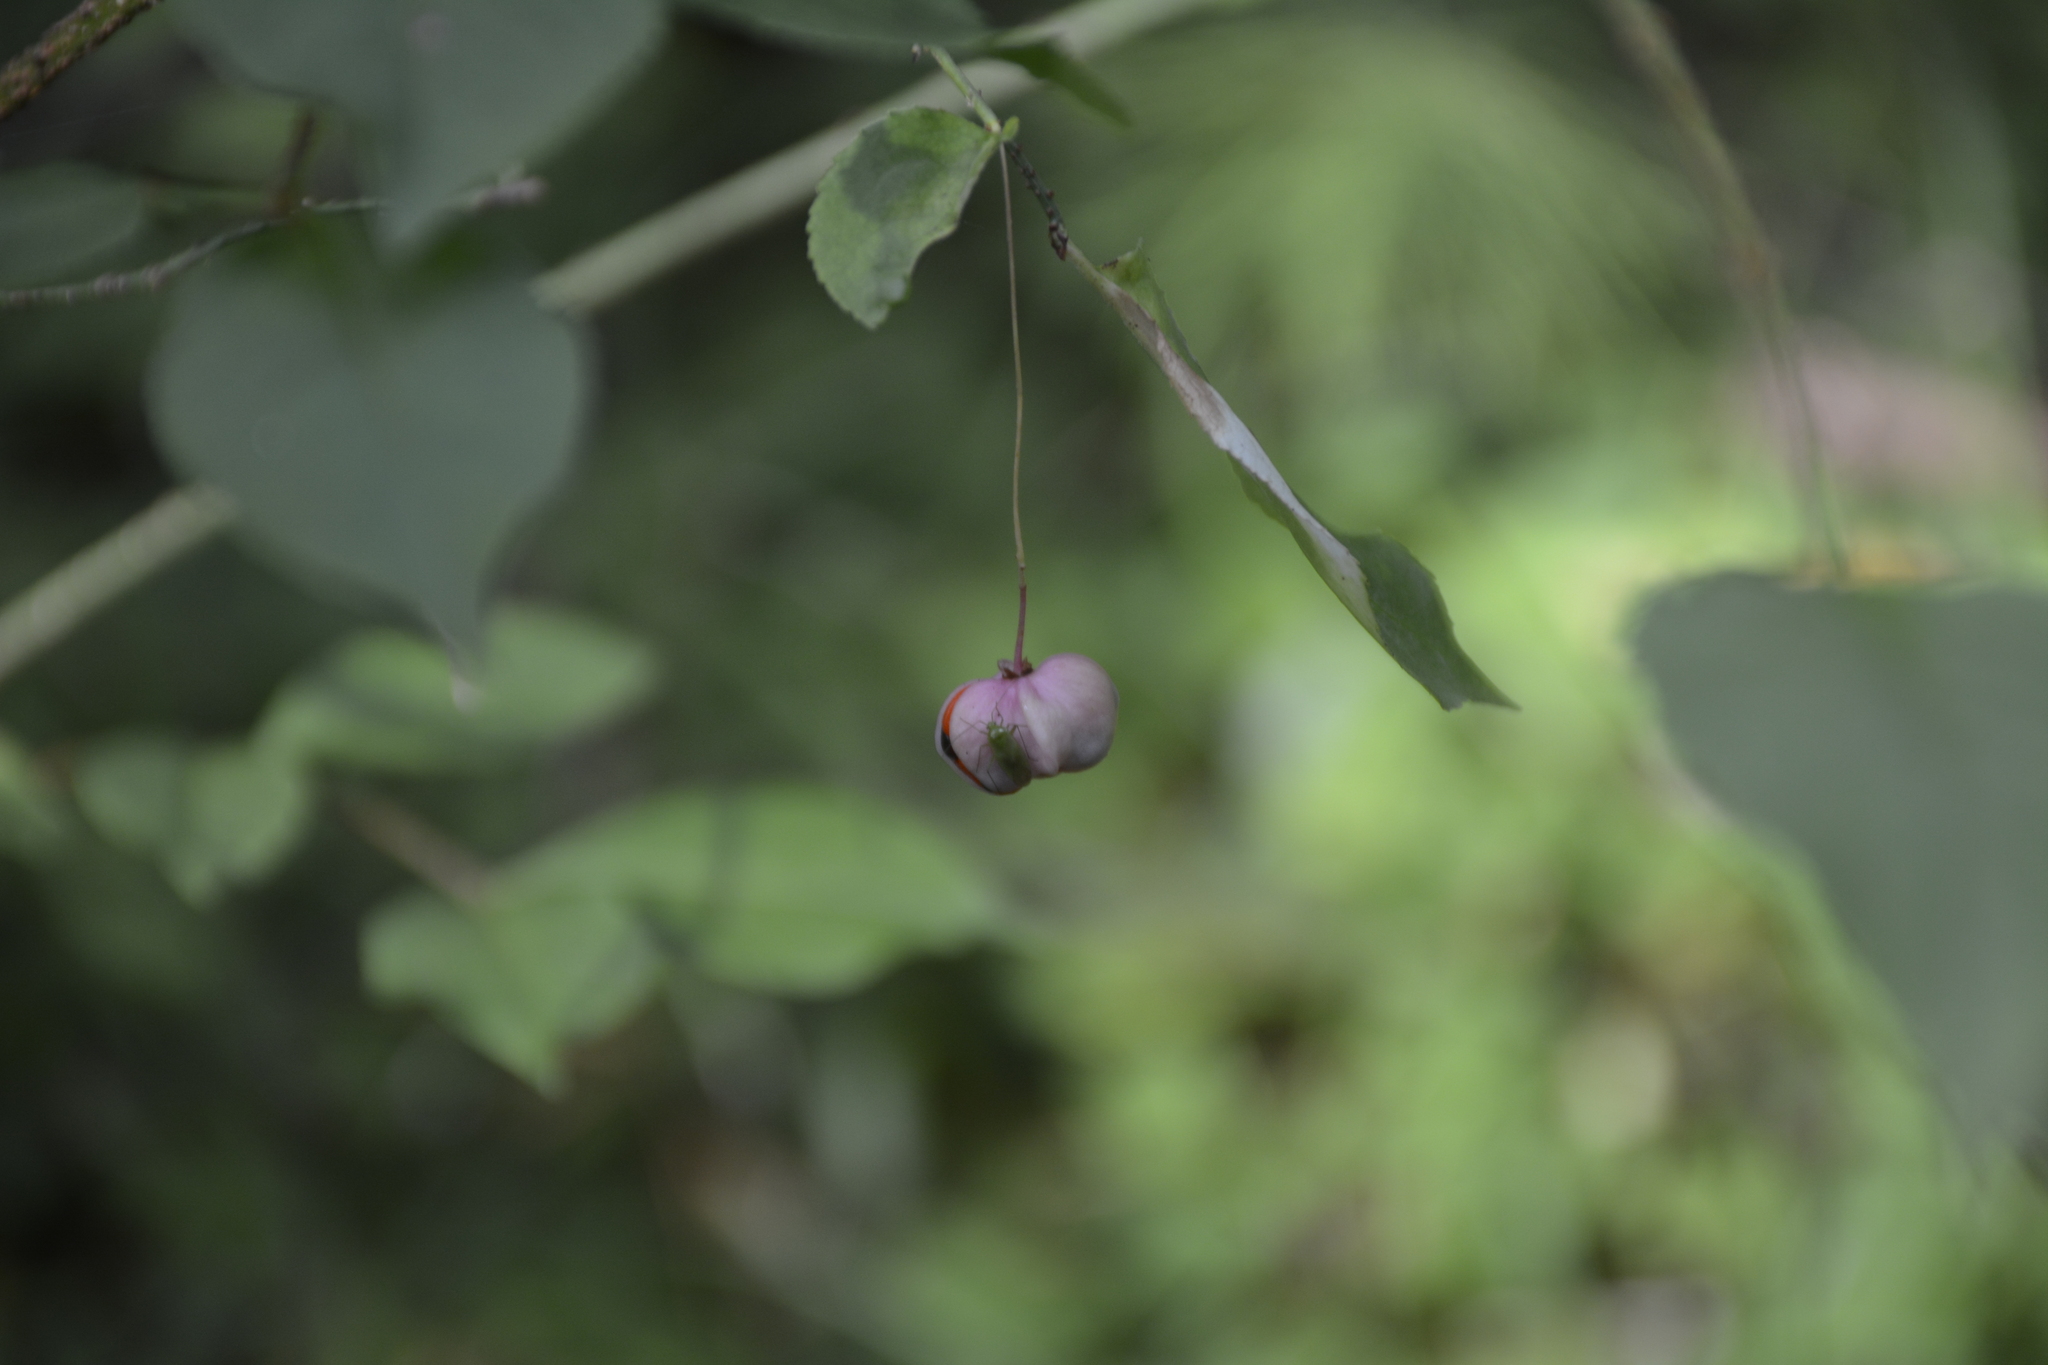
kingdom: Plantae
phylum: Tracheophyta
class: Magnoliopsida
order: Celastrales
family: Celastraceae
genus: Euonymus
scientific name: Euonymus verrucosus
